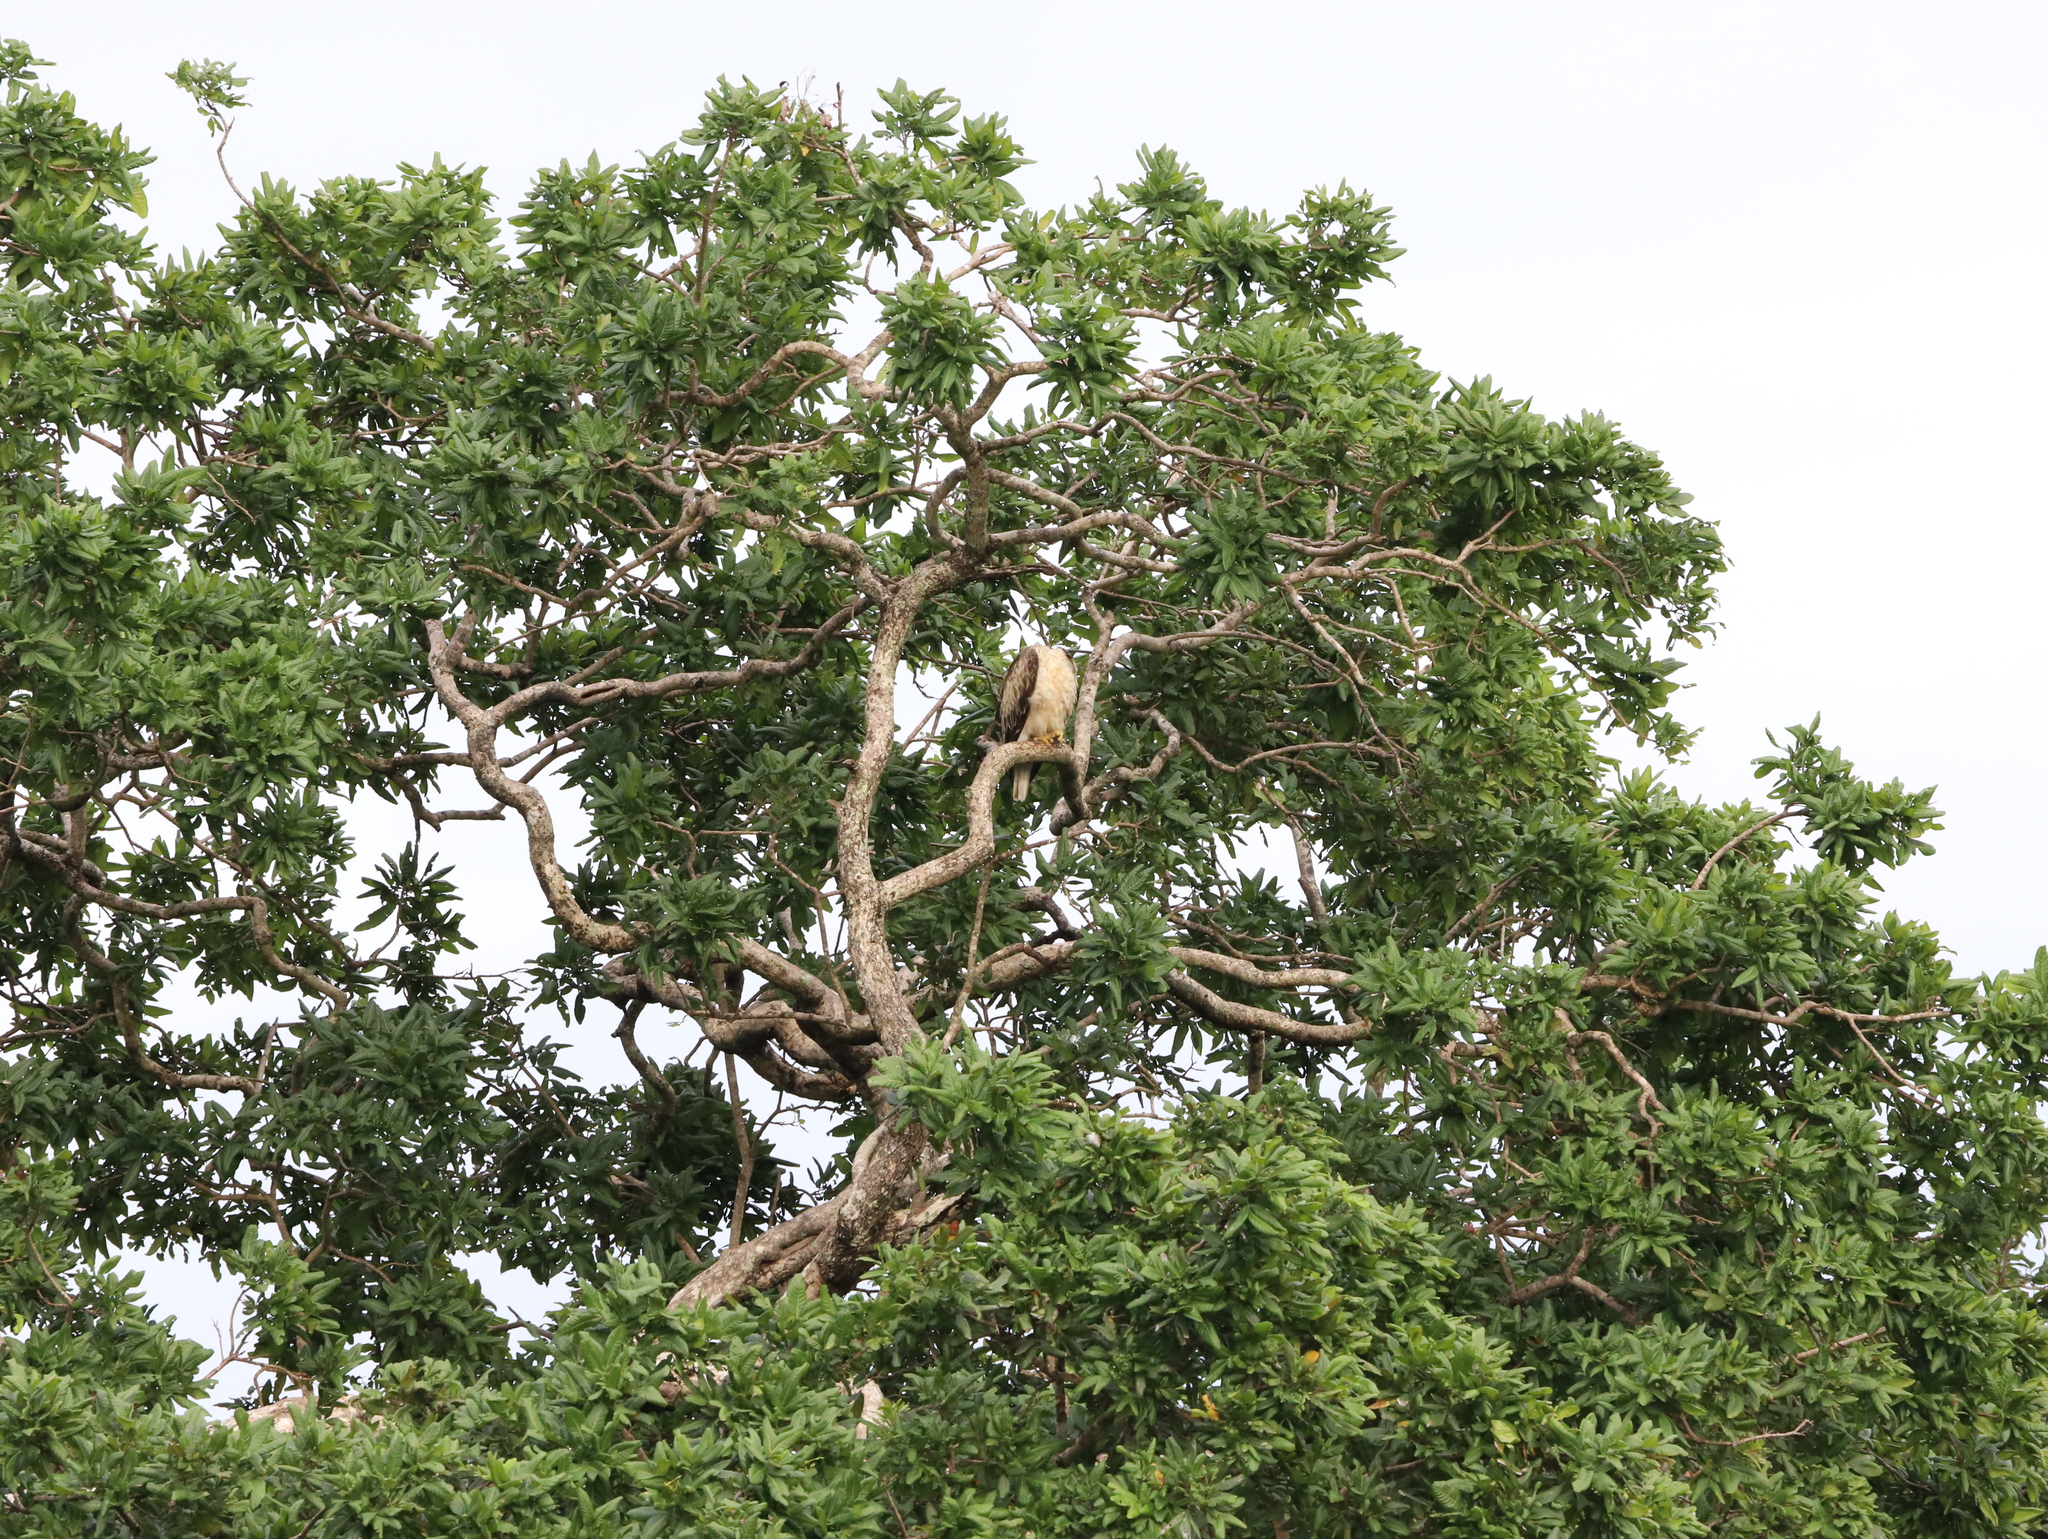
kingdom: Animalia
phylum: Chordata
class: Aves
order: Accipitriformes
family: Accipitridae
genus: Nisaetus
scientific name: Nisaetus cirrhatus
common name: Changeable hawk-eagle
